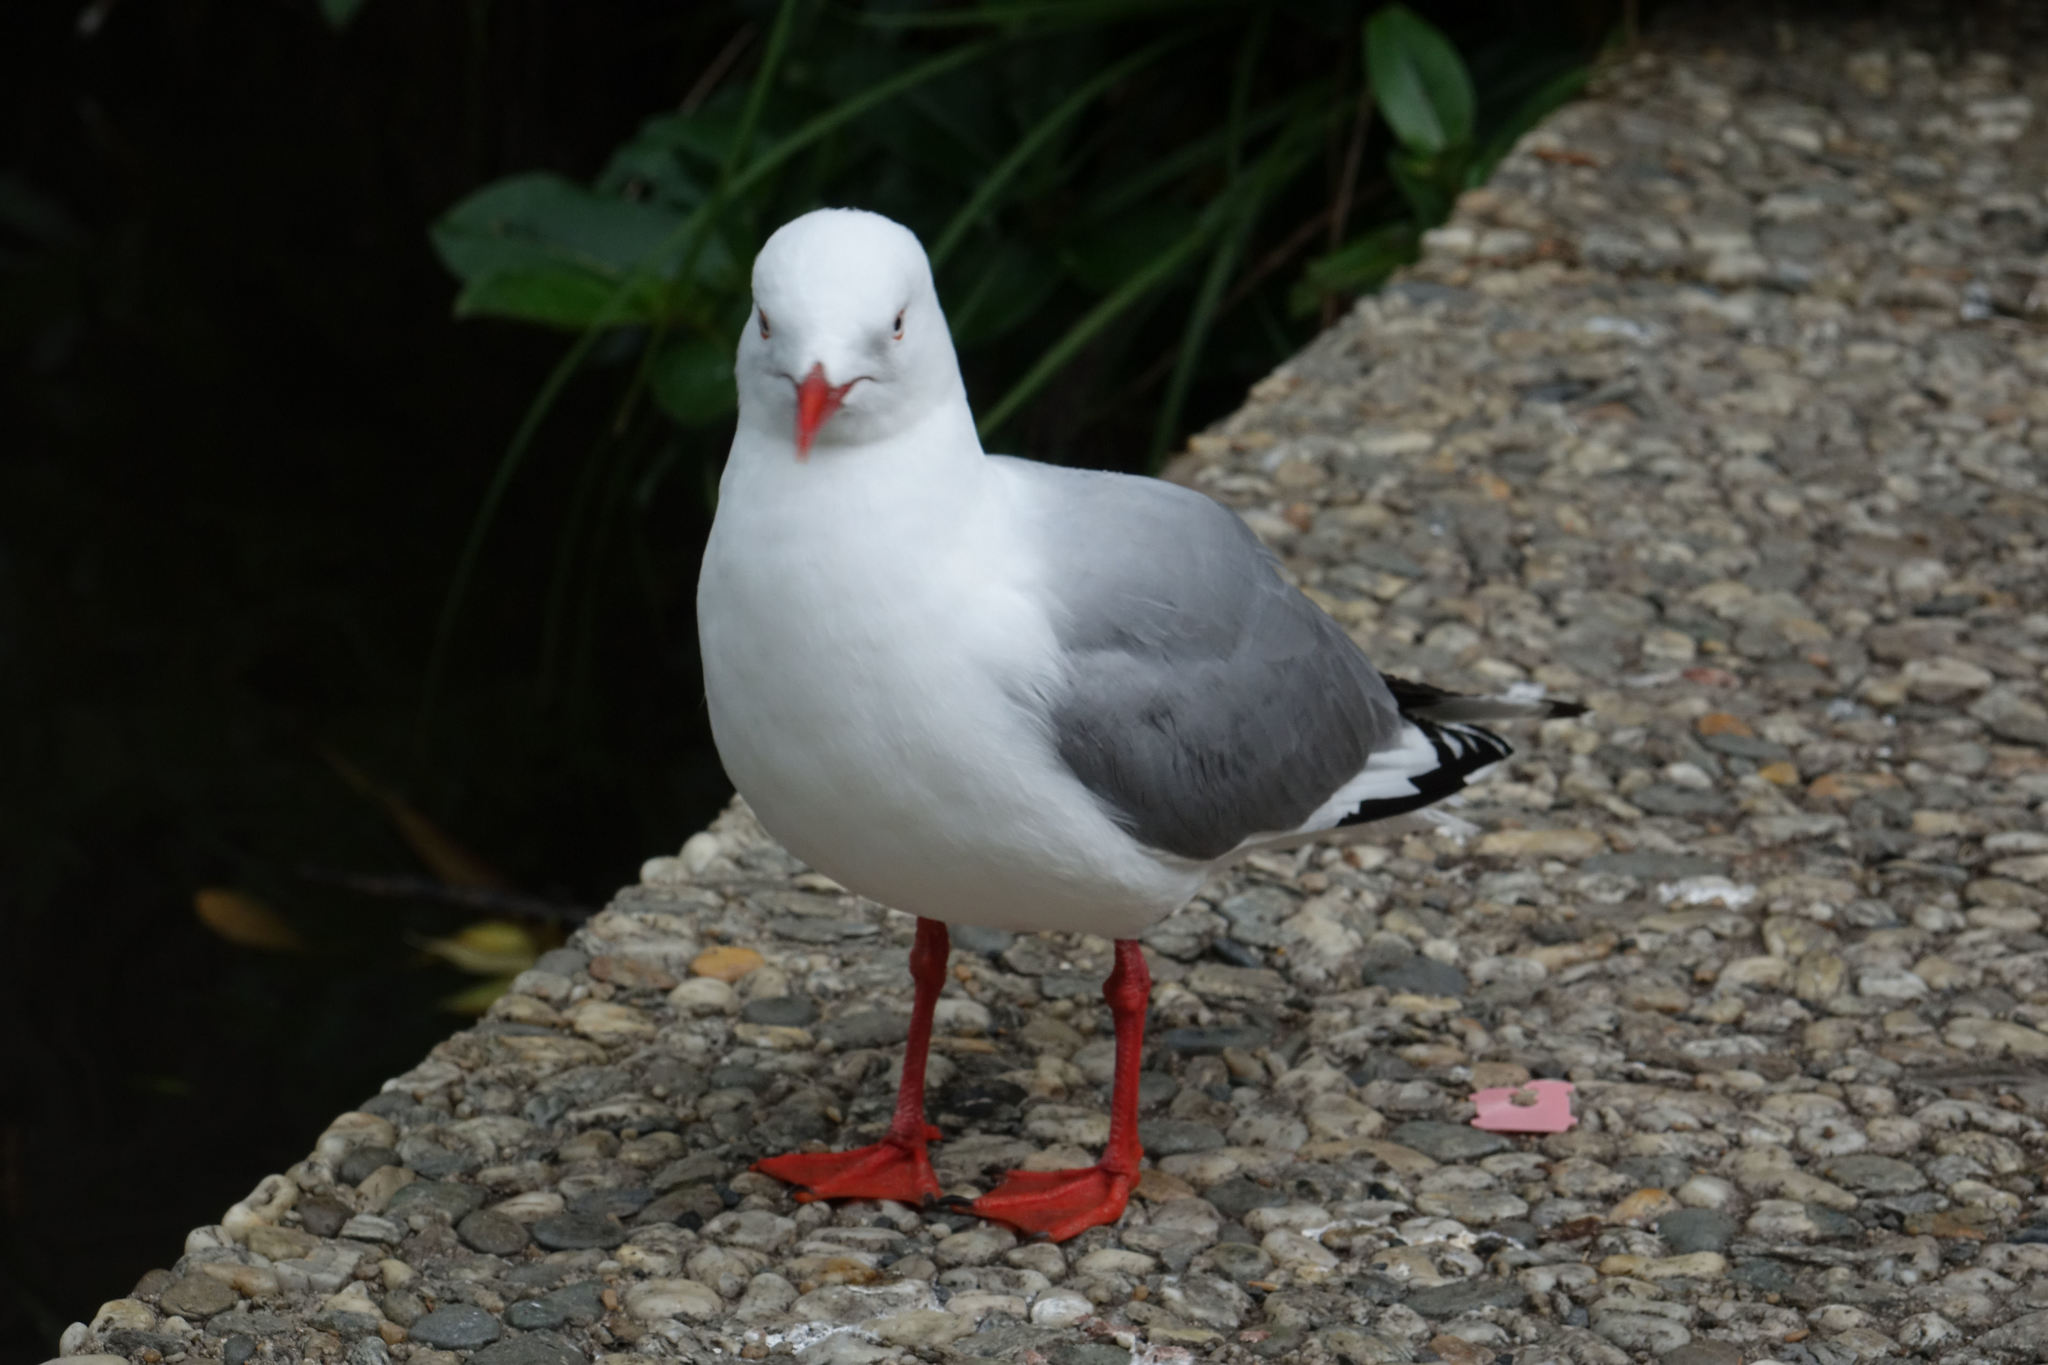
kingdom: Animalia
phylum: Chordata
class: Aves
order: Charadriiformes
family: Laridae
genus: Chroicocephalus
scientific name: Chroicocephalus novaehollandiae
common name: Silver gull
